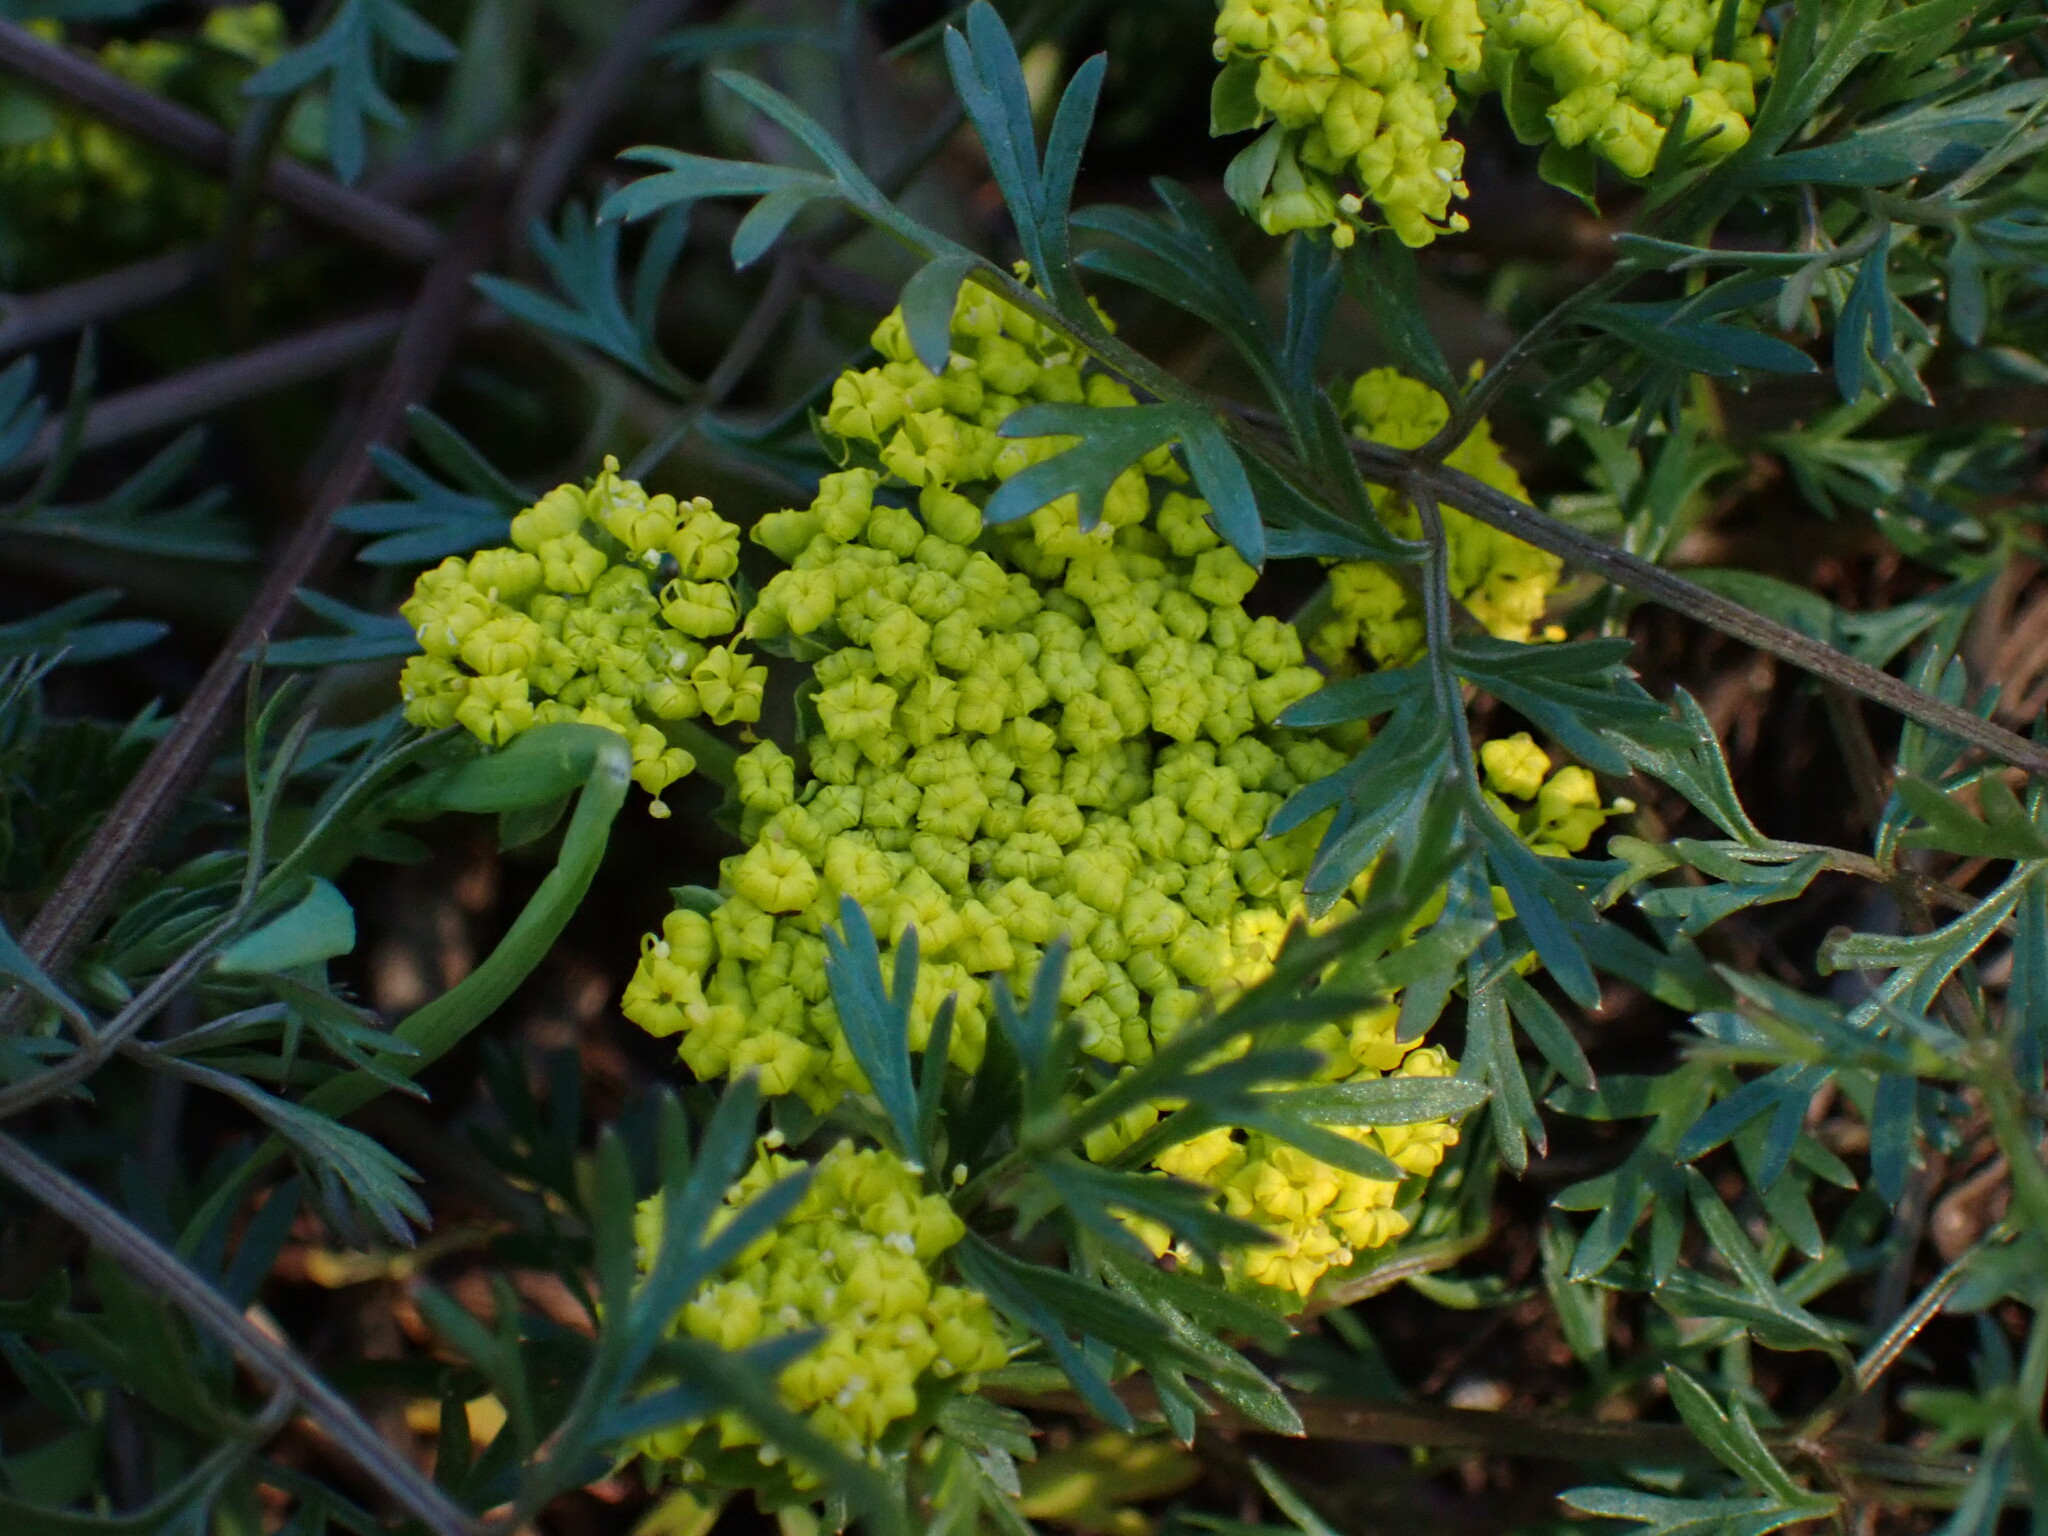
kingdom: Plantae
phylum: Tracheophyta
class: Magnoliopsida
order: Apiales
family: Apiaceae
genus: Lomatium
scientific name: Lomatium utriculatum
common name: Fine-leaf desert-parsley
